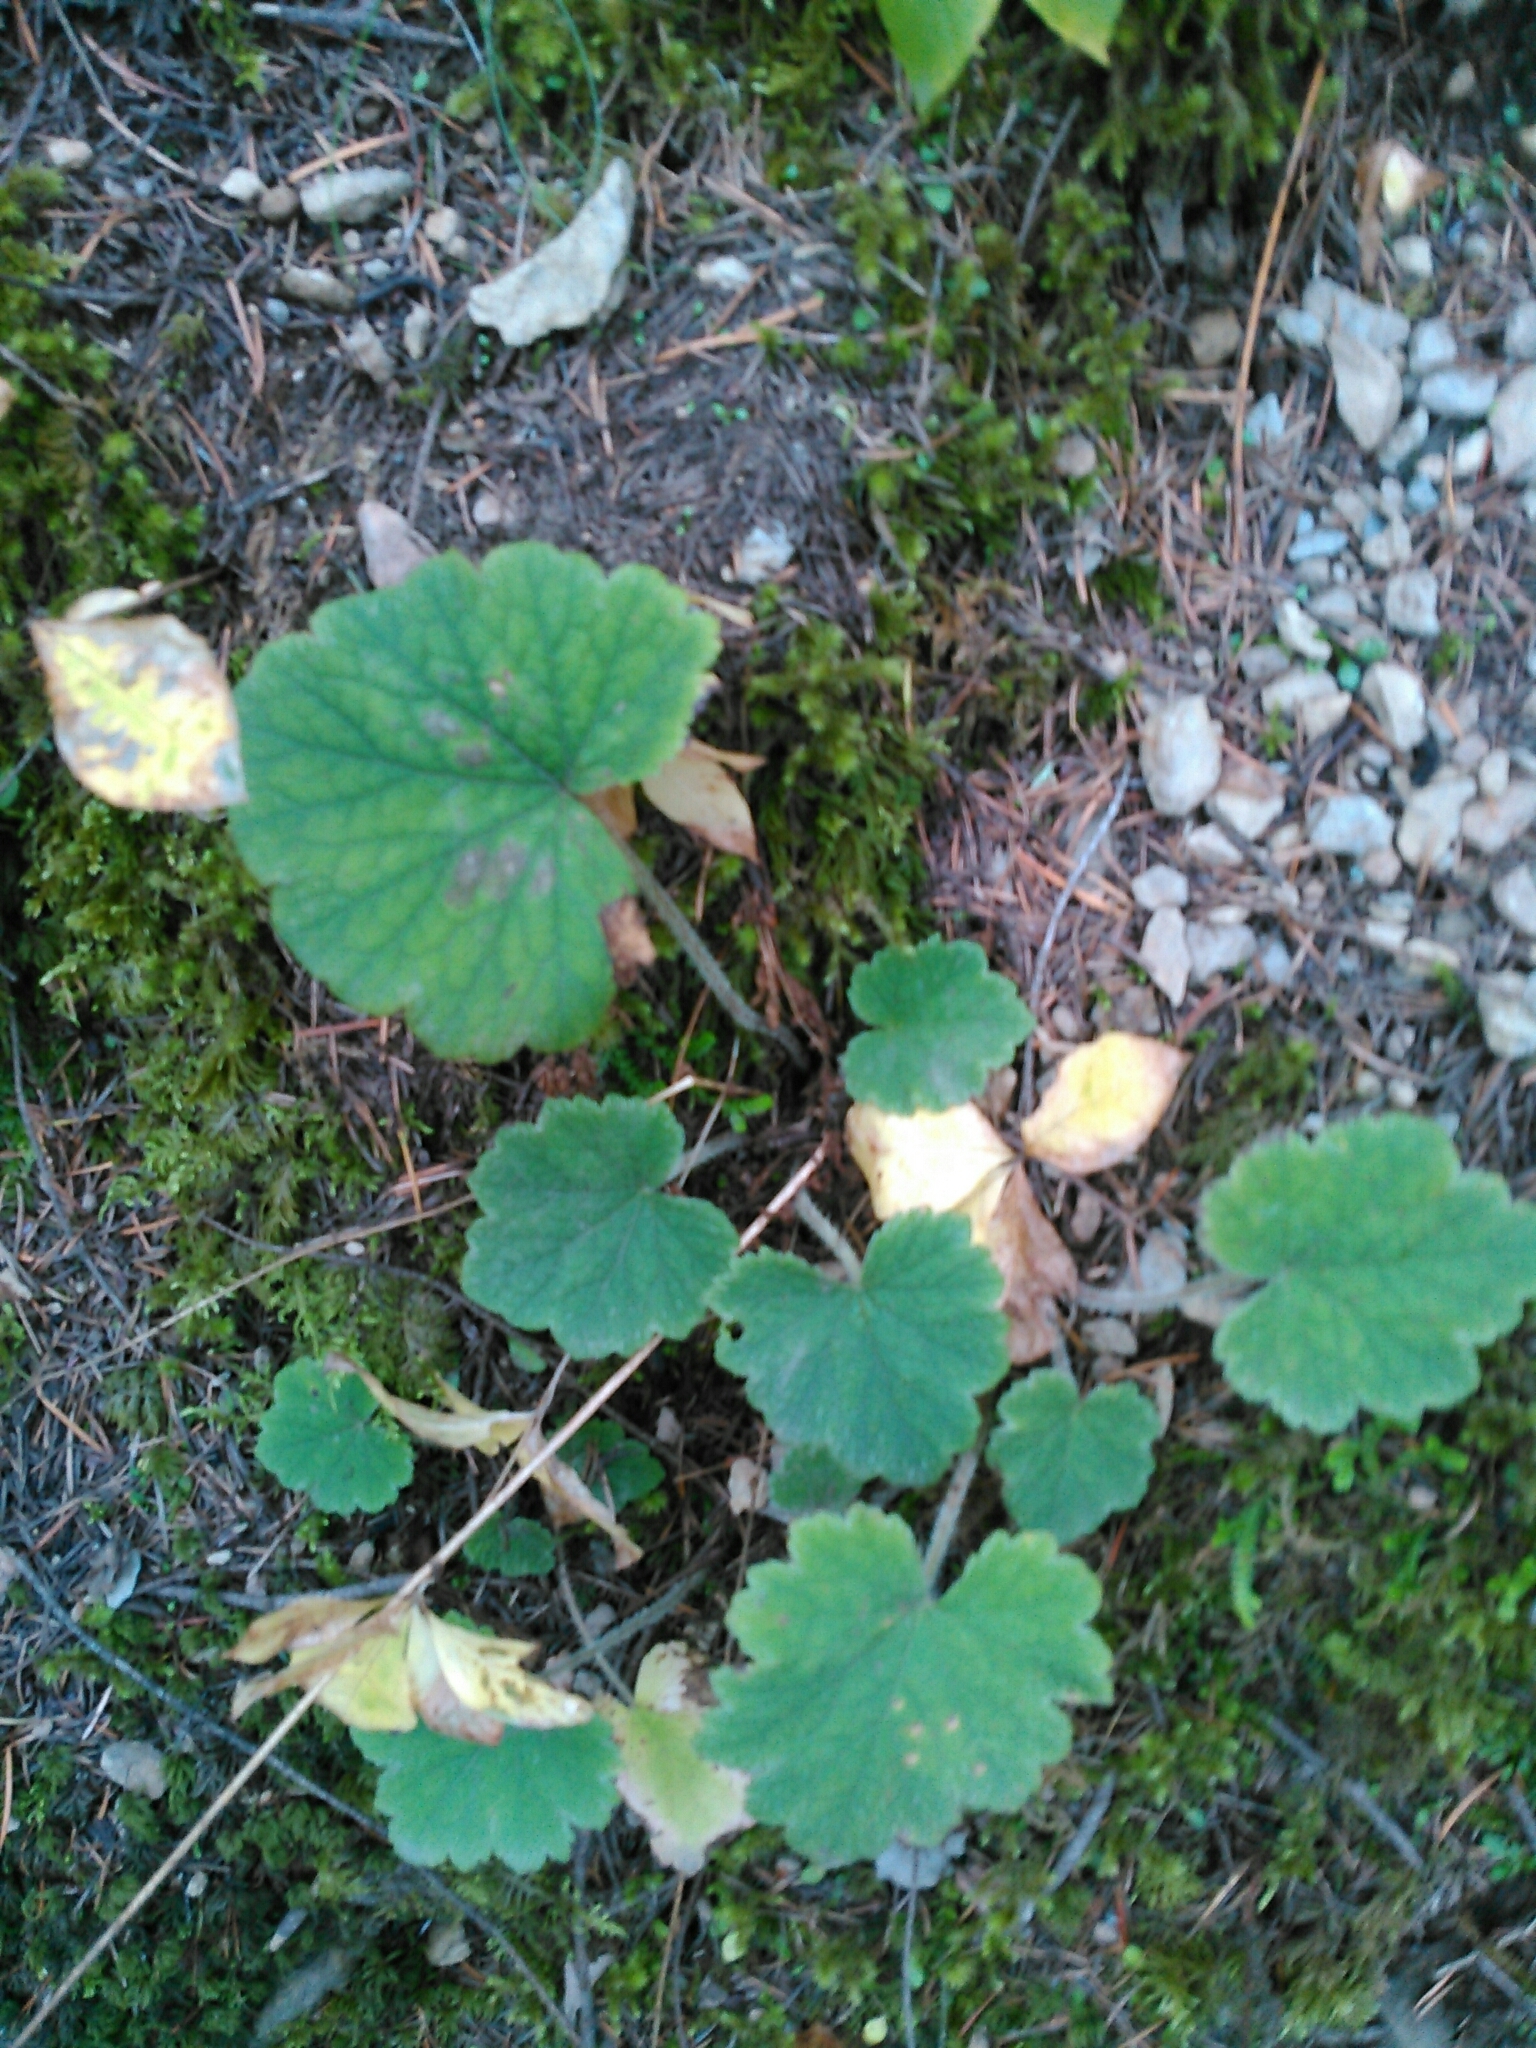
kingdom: Plantae
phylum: Tracheophyta
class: Magnoliopsida
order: Saxifragales
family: Saxifragaceae
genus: Tellima
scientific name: Tellima grandiflora
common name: Fringecups
